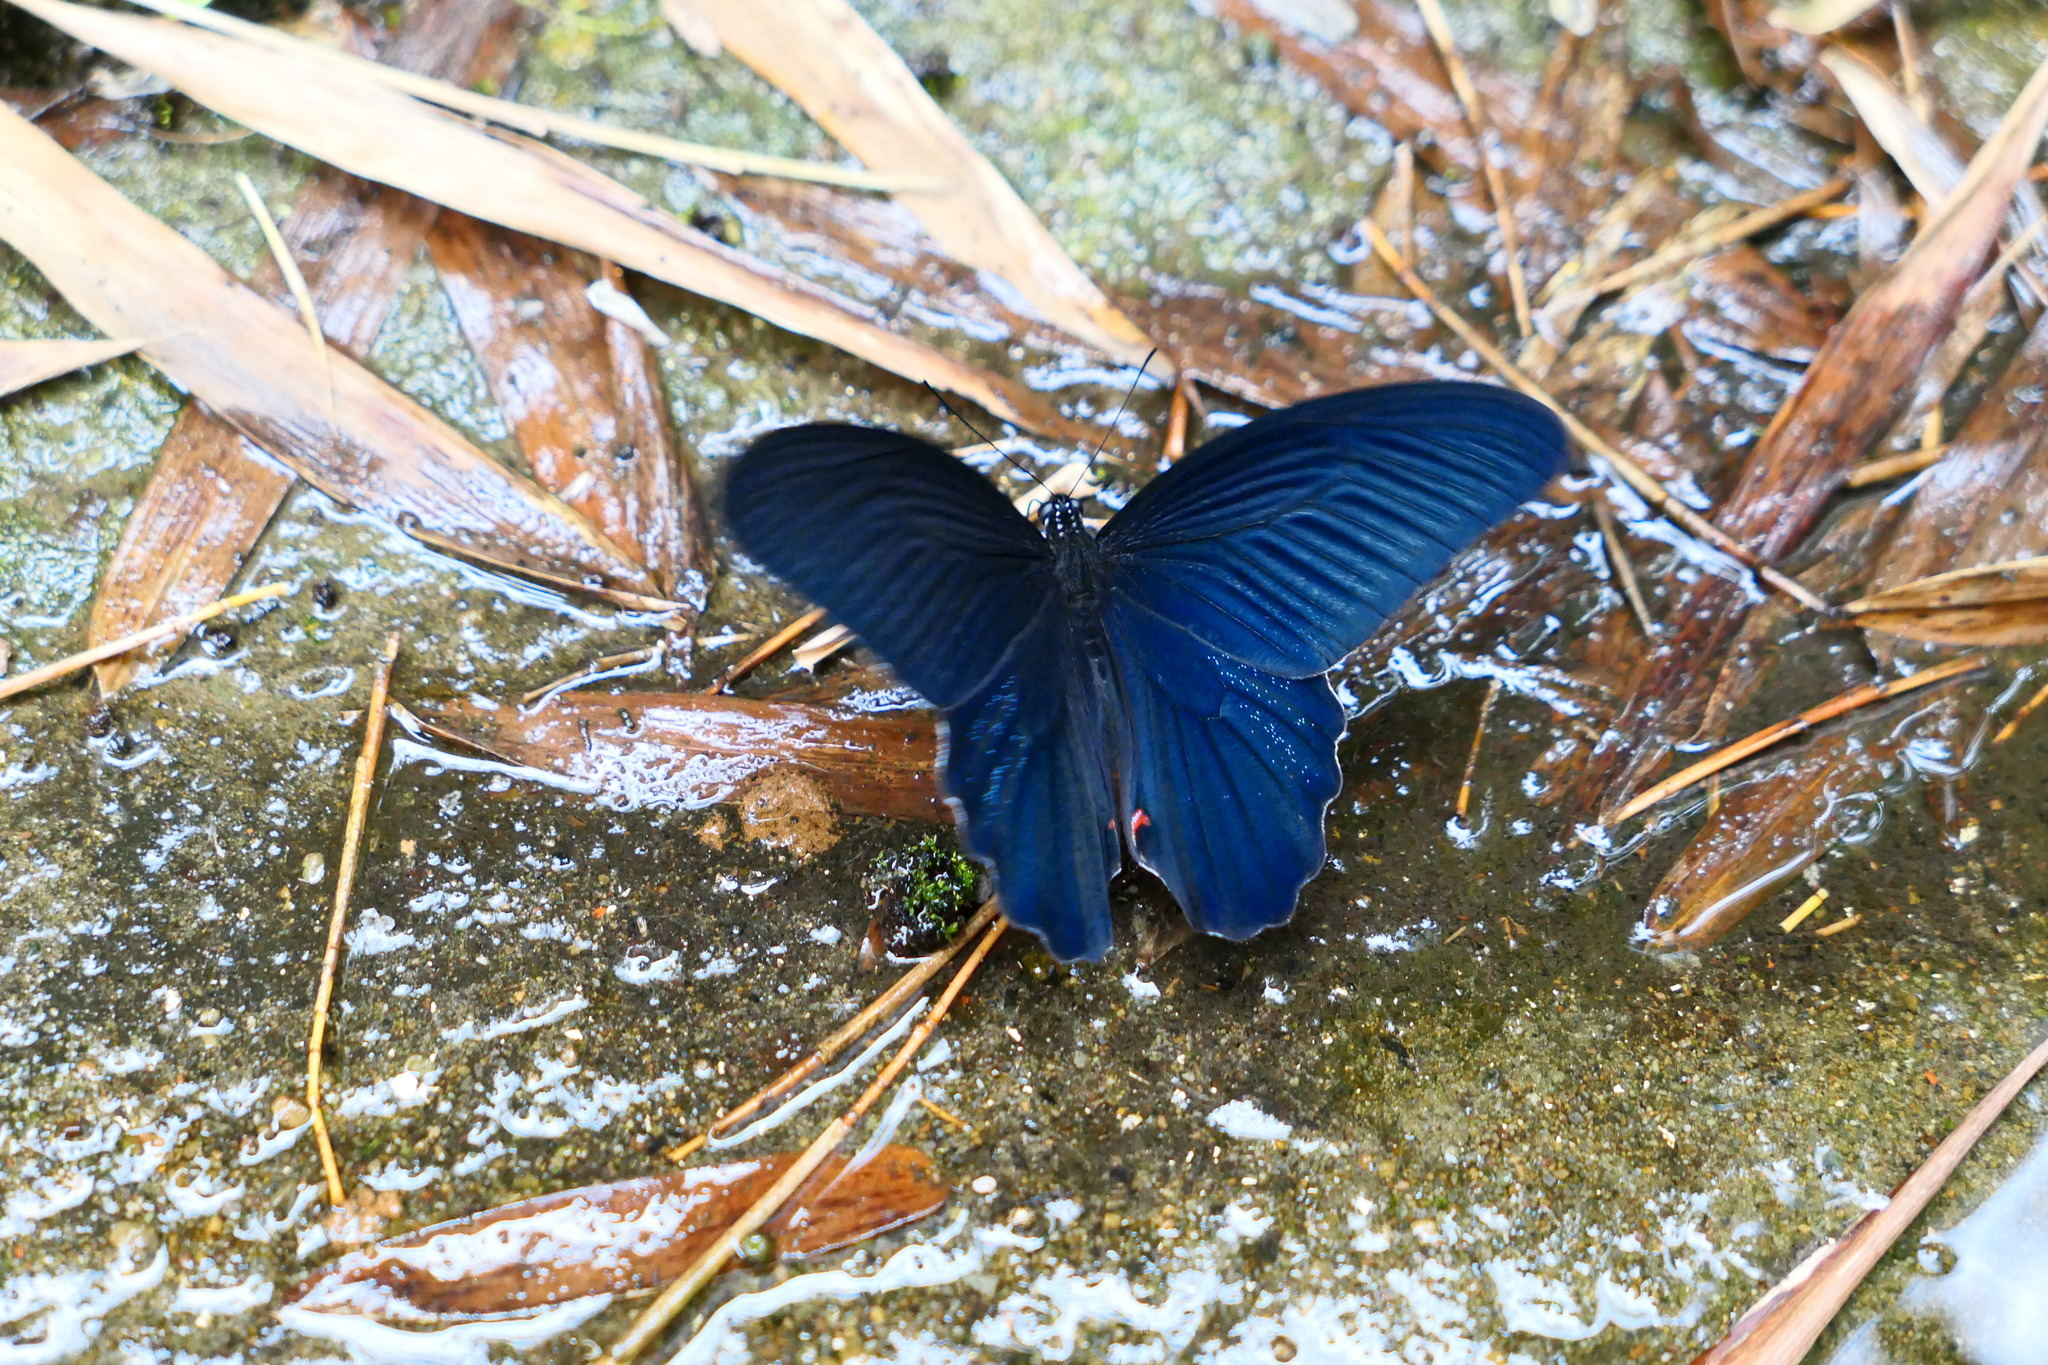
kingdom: Animalia
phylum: Arthropoda
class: Insecta
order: Lepidoptera
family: Papilionidae
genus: Papilio
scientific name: Papilio protenor
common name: Spangle
